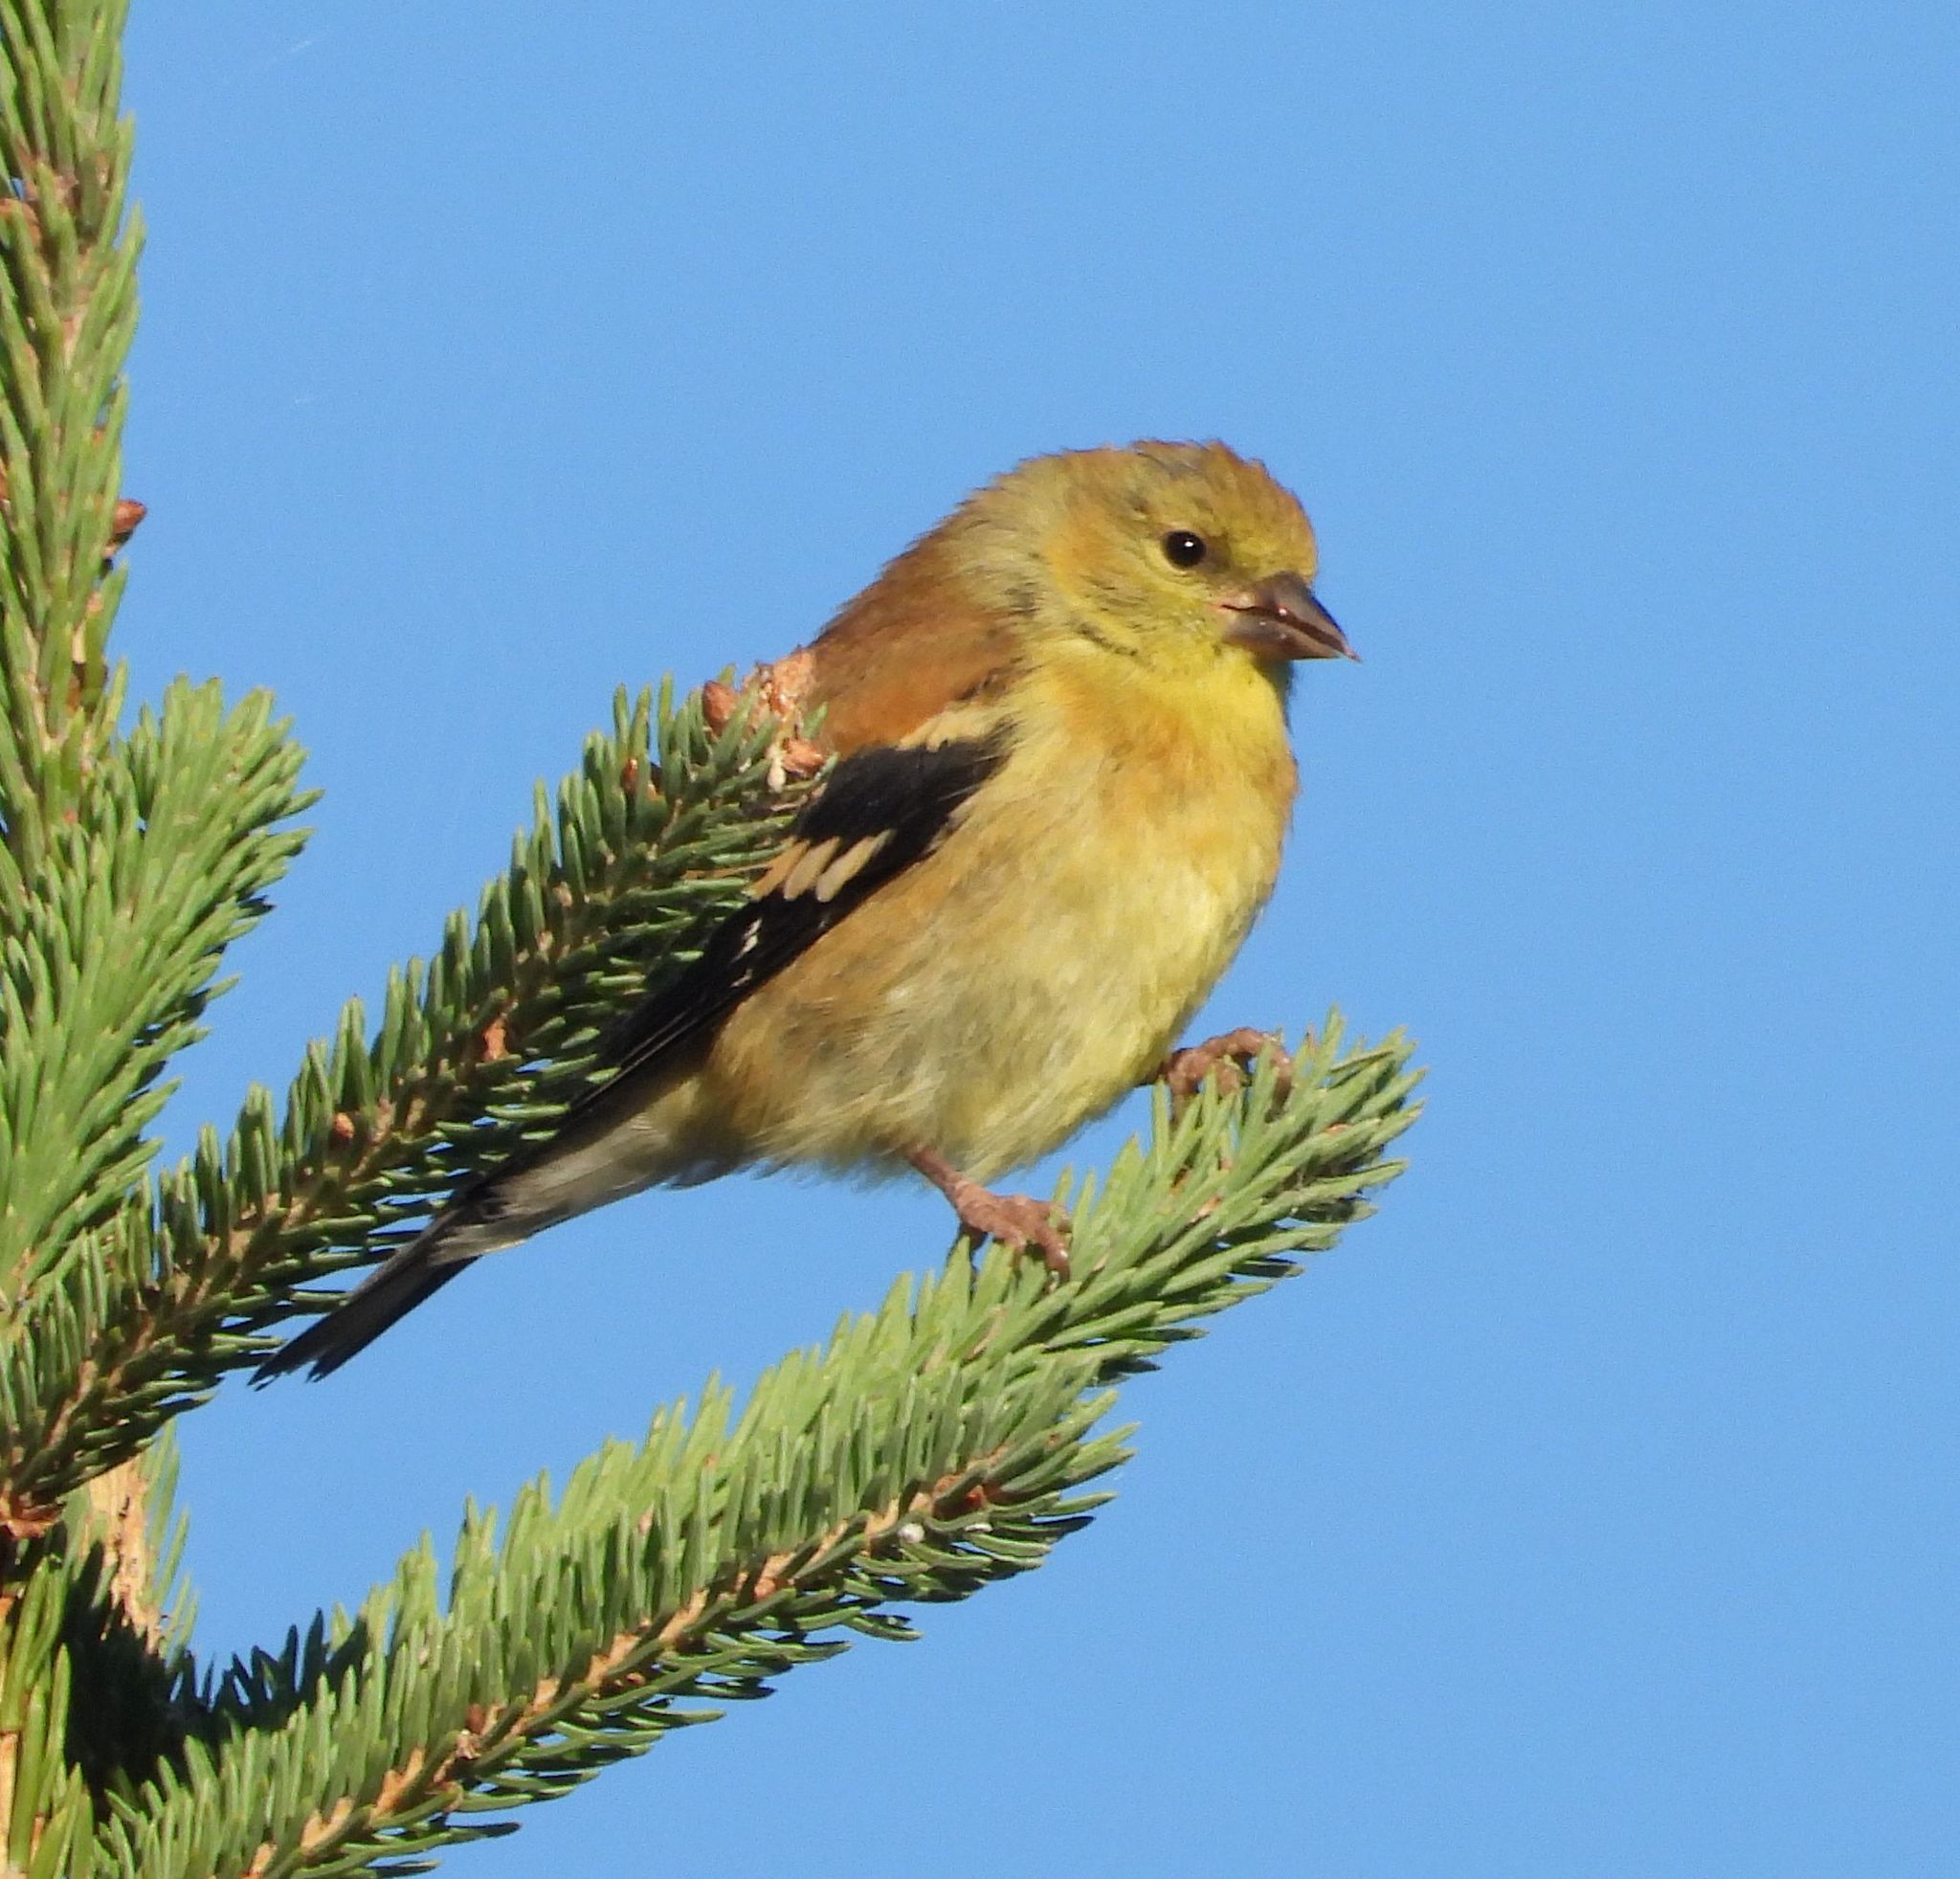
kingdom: Animalia
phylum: Chordata
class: Aves
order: Passeriformes
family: Fringillidae
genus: Spinus
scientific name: Spinus tristis
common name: American goldfinch
